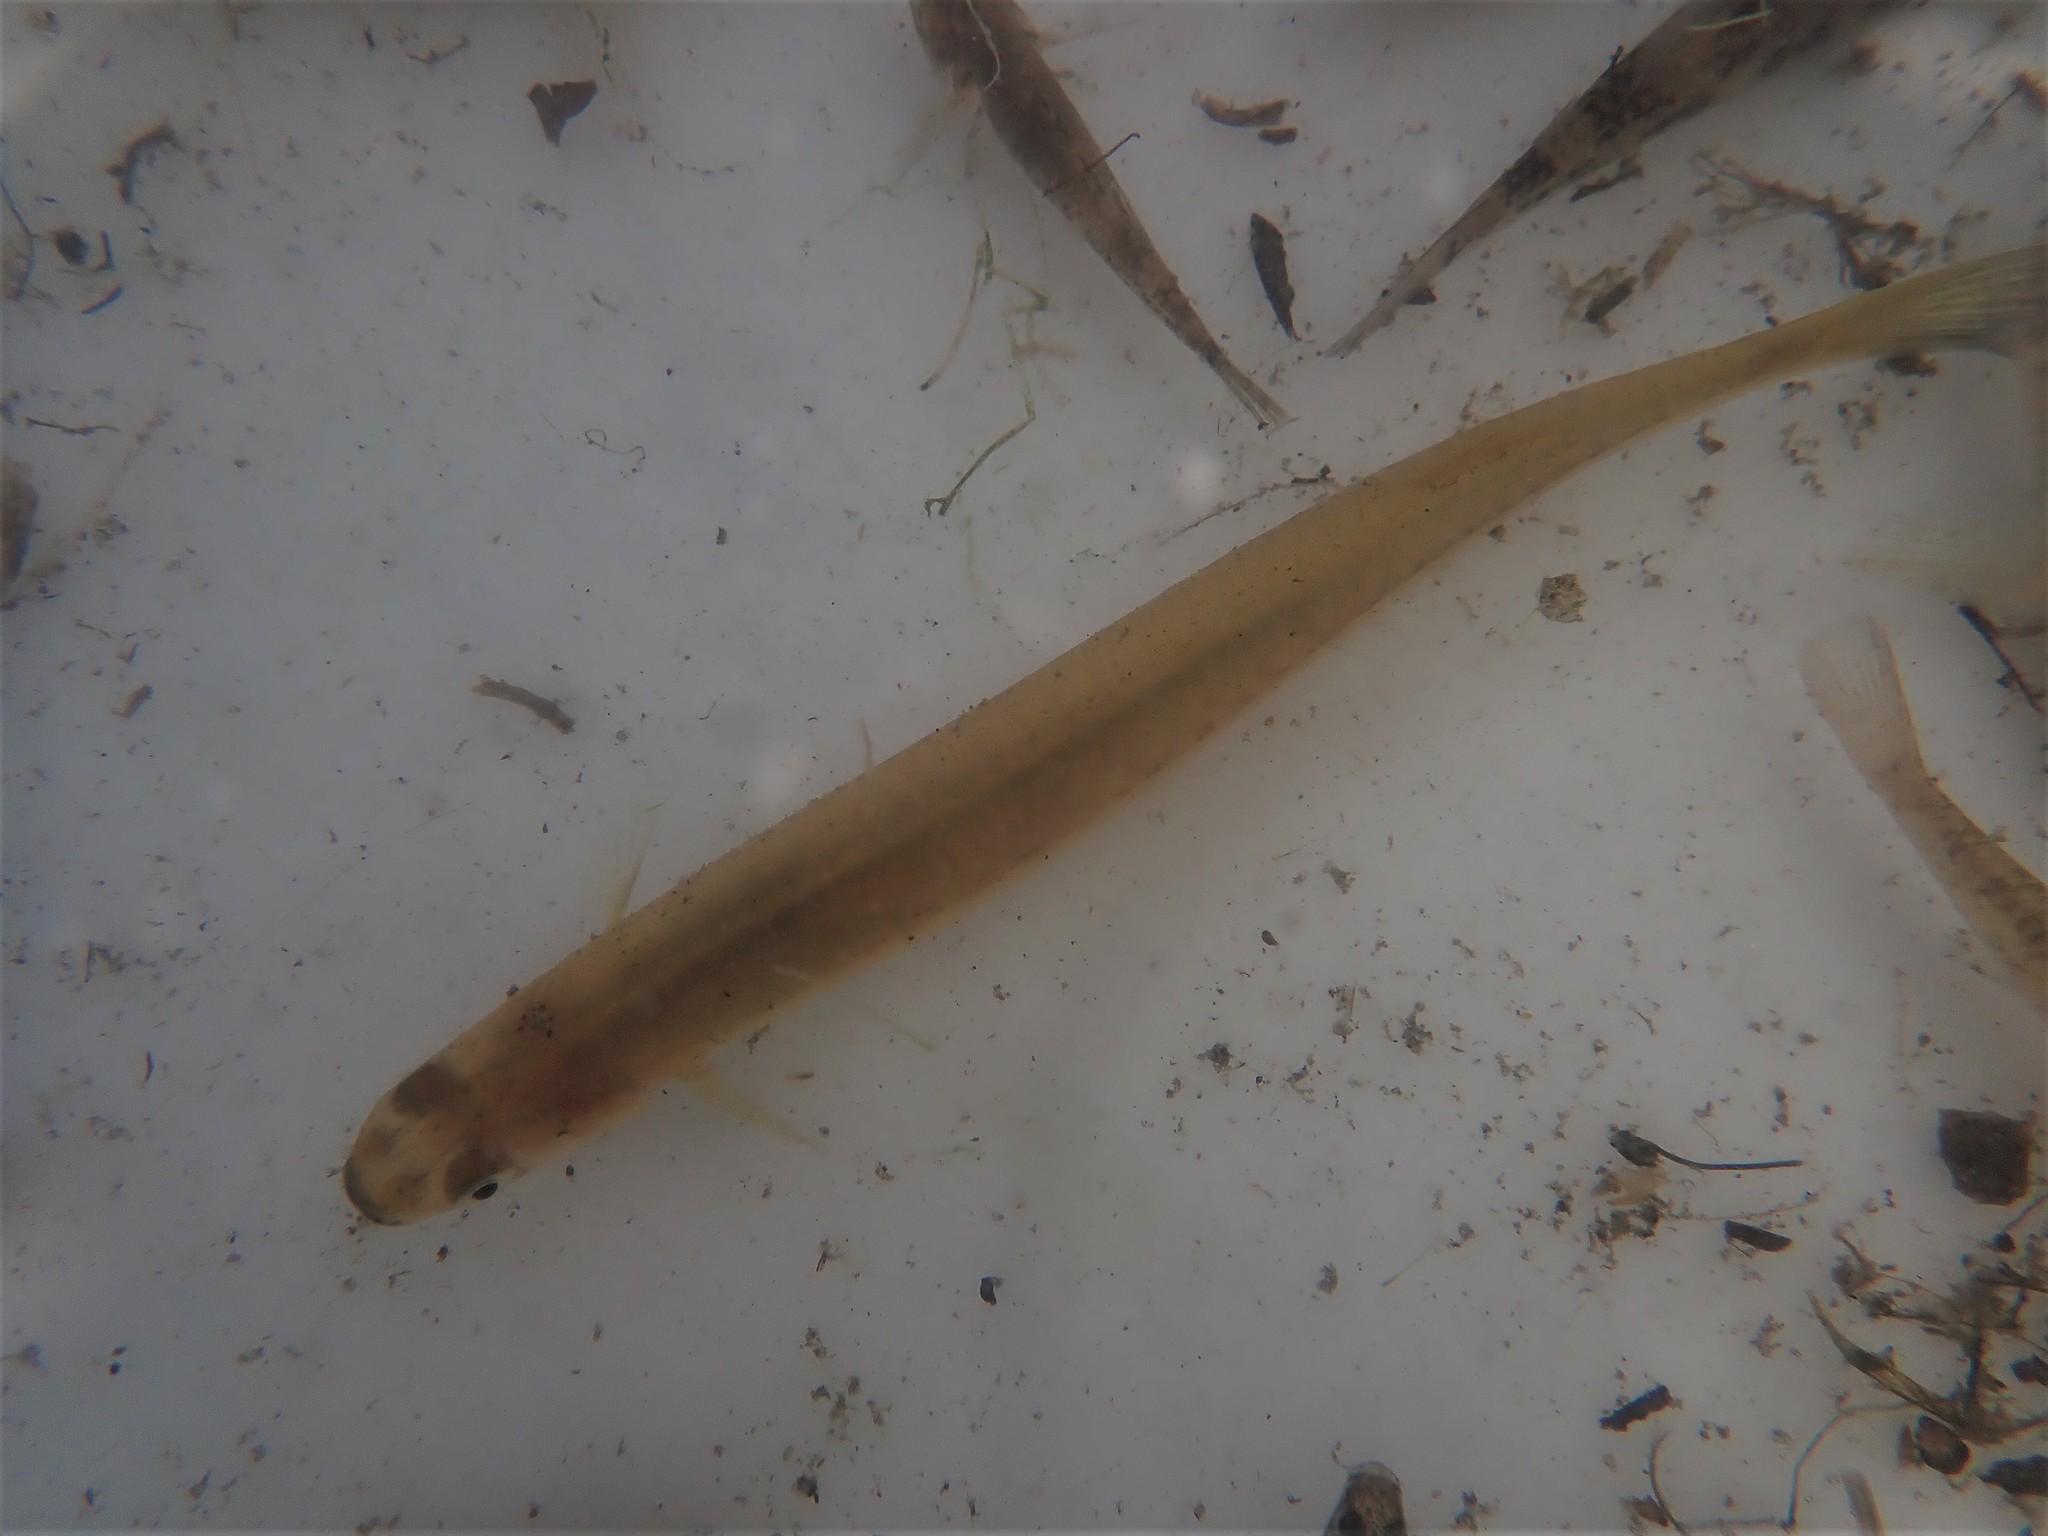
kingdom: Animalia
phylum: Chordata
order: Osmeriformes
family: Galaxiidae
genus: Galaxias
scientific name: Galaxias maculatus
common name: Common galaxias
